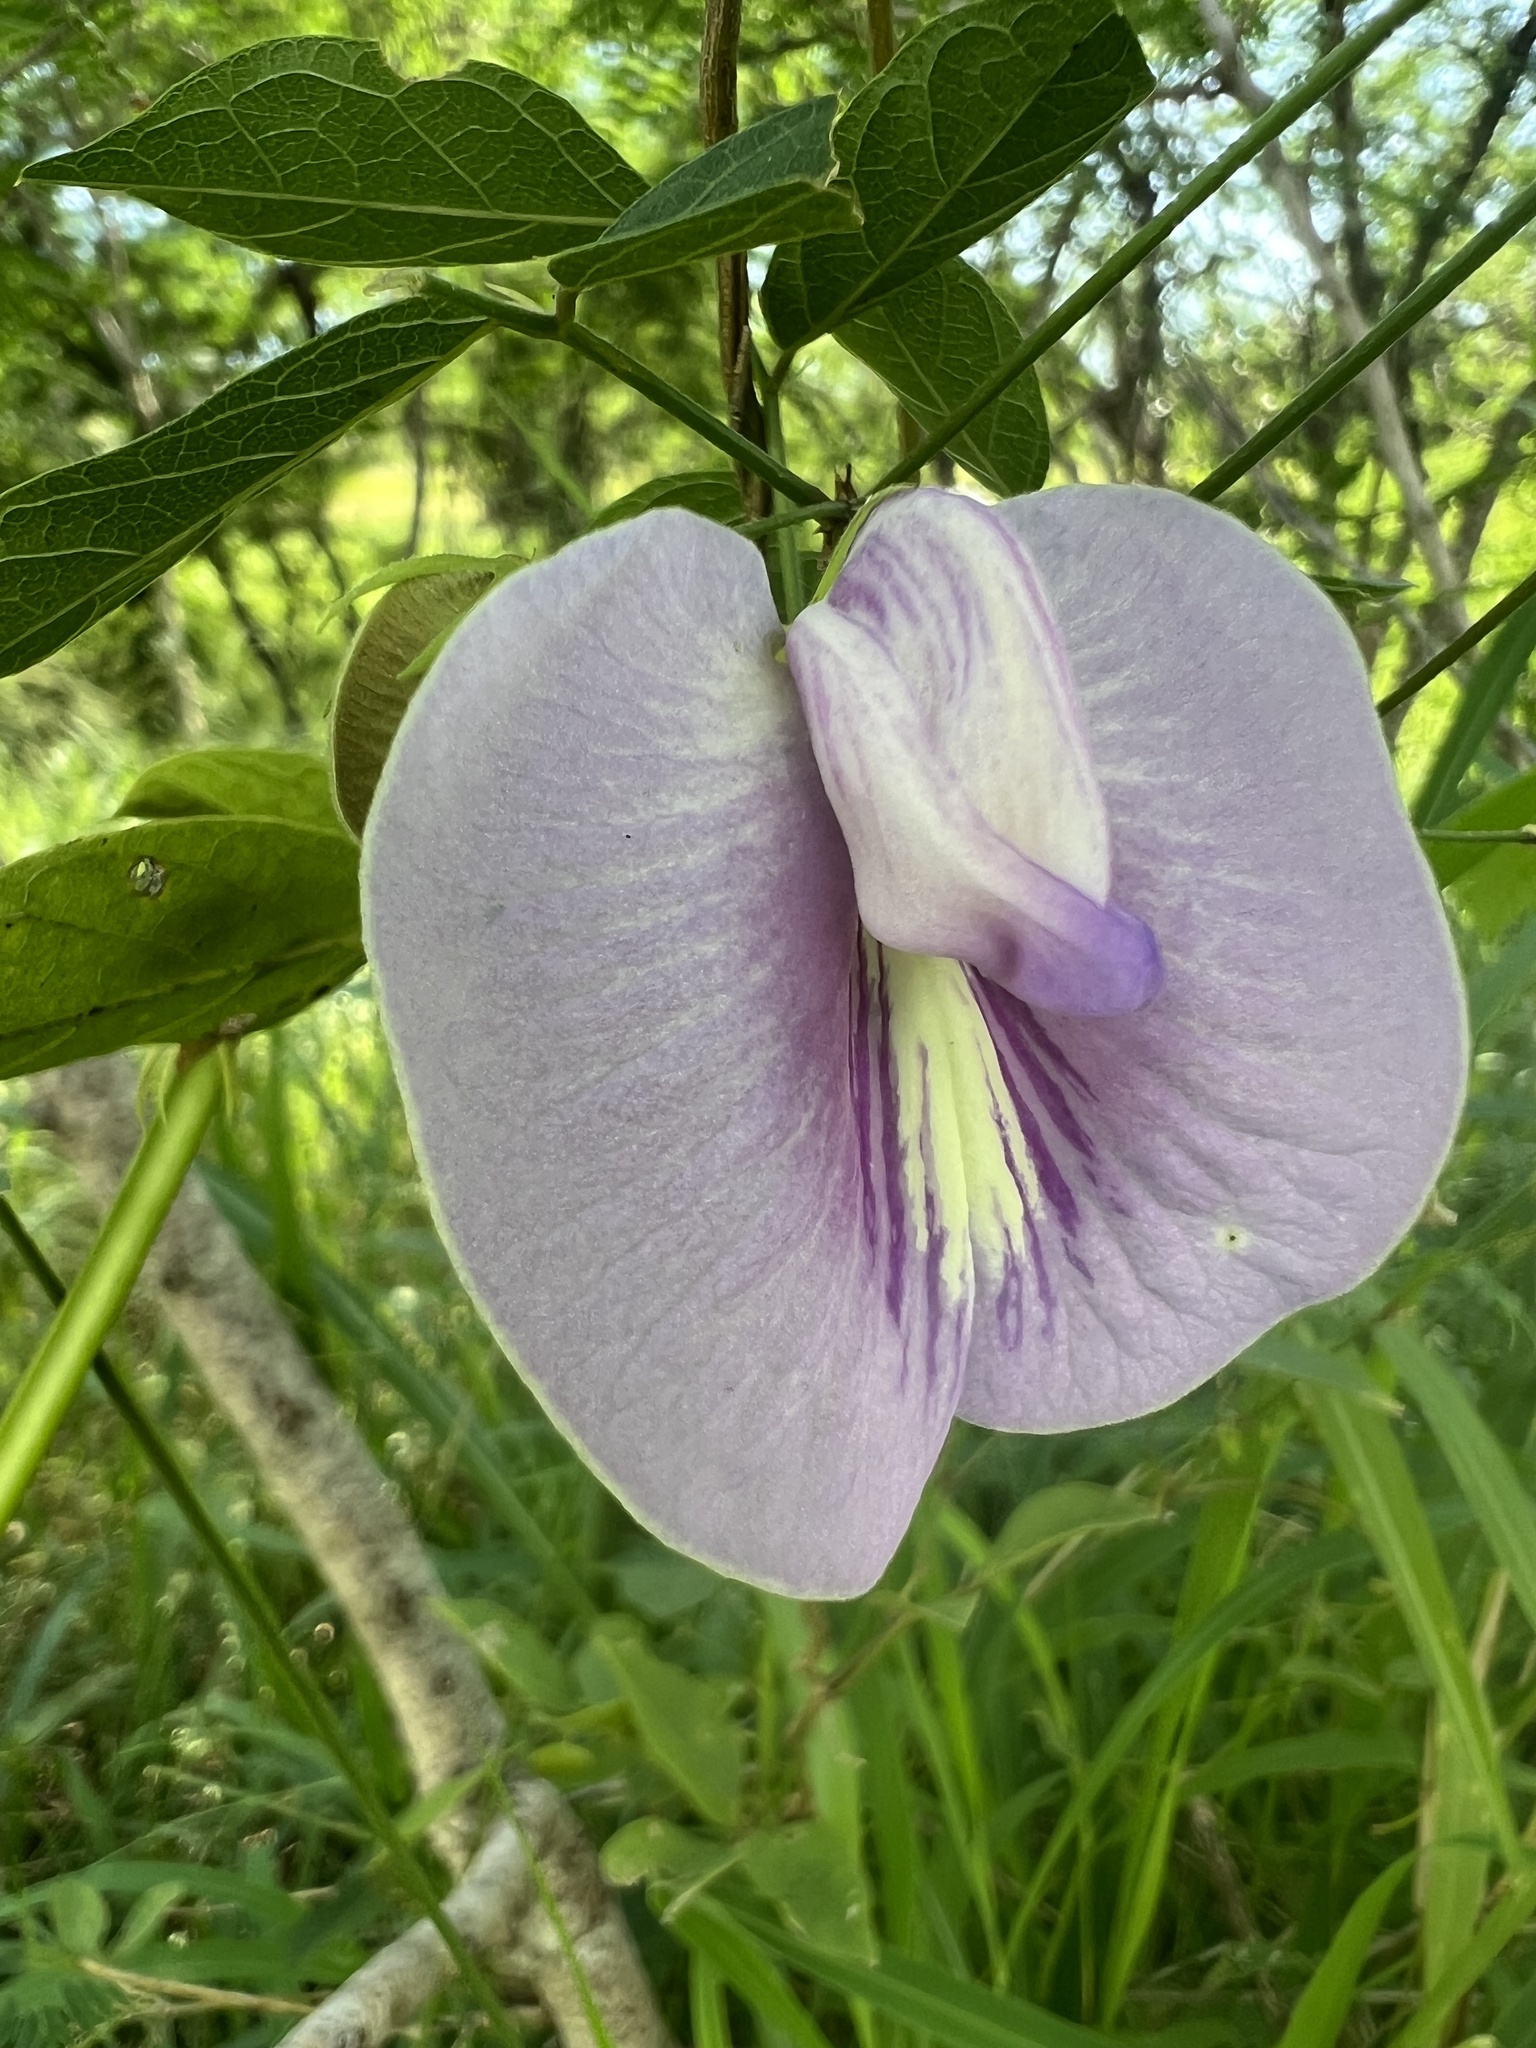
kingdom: Plantae
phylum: Tracheophyta
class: Magnoliopsida
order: Fabales
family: Fabaceae
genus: Centrosema
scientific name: Centrosema virginianum
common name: Butterfly-pea
